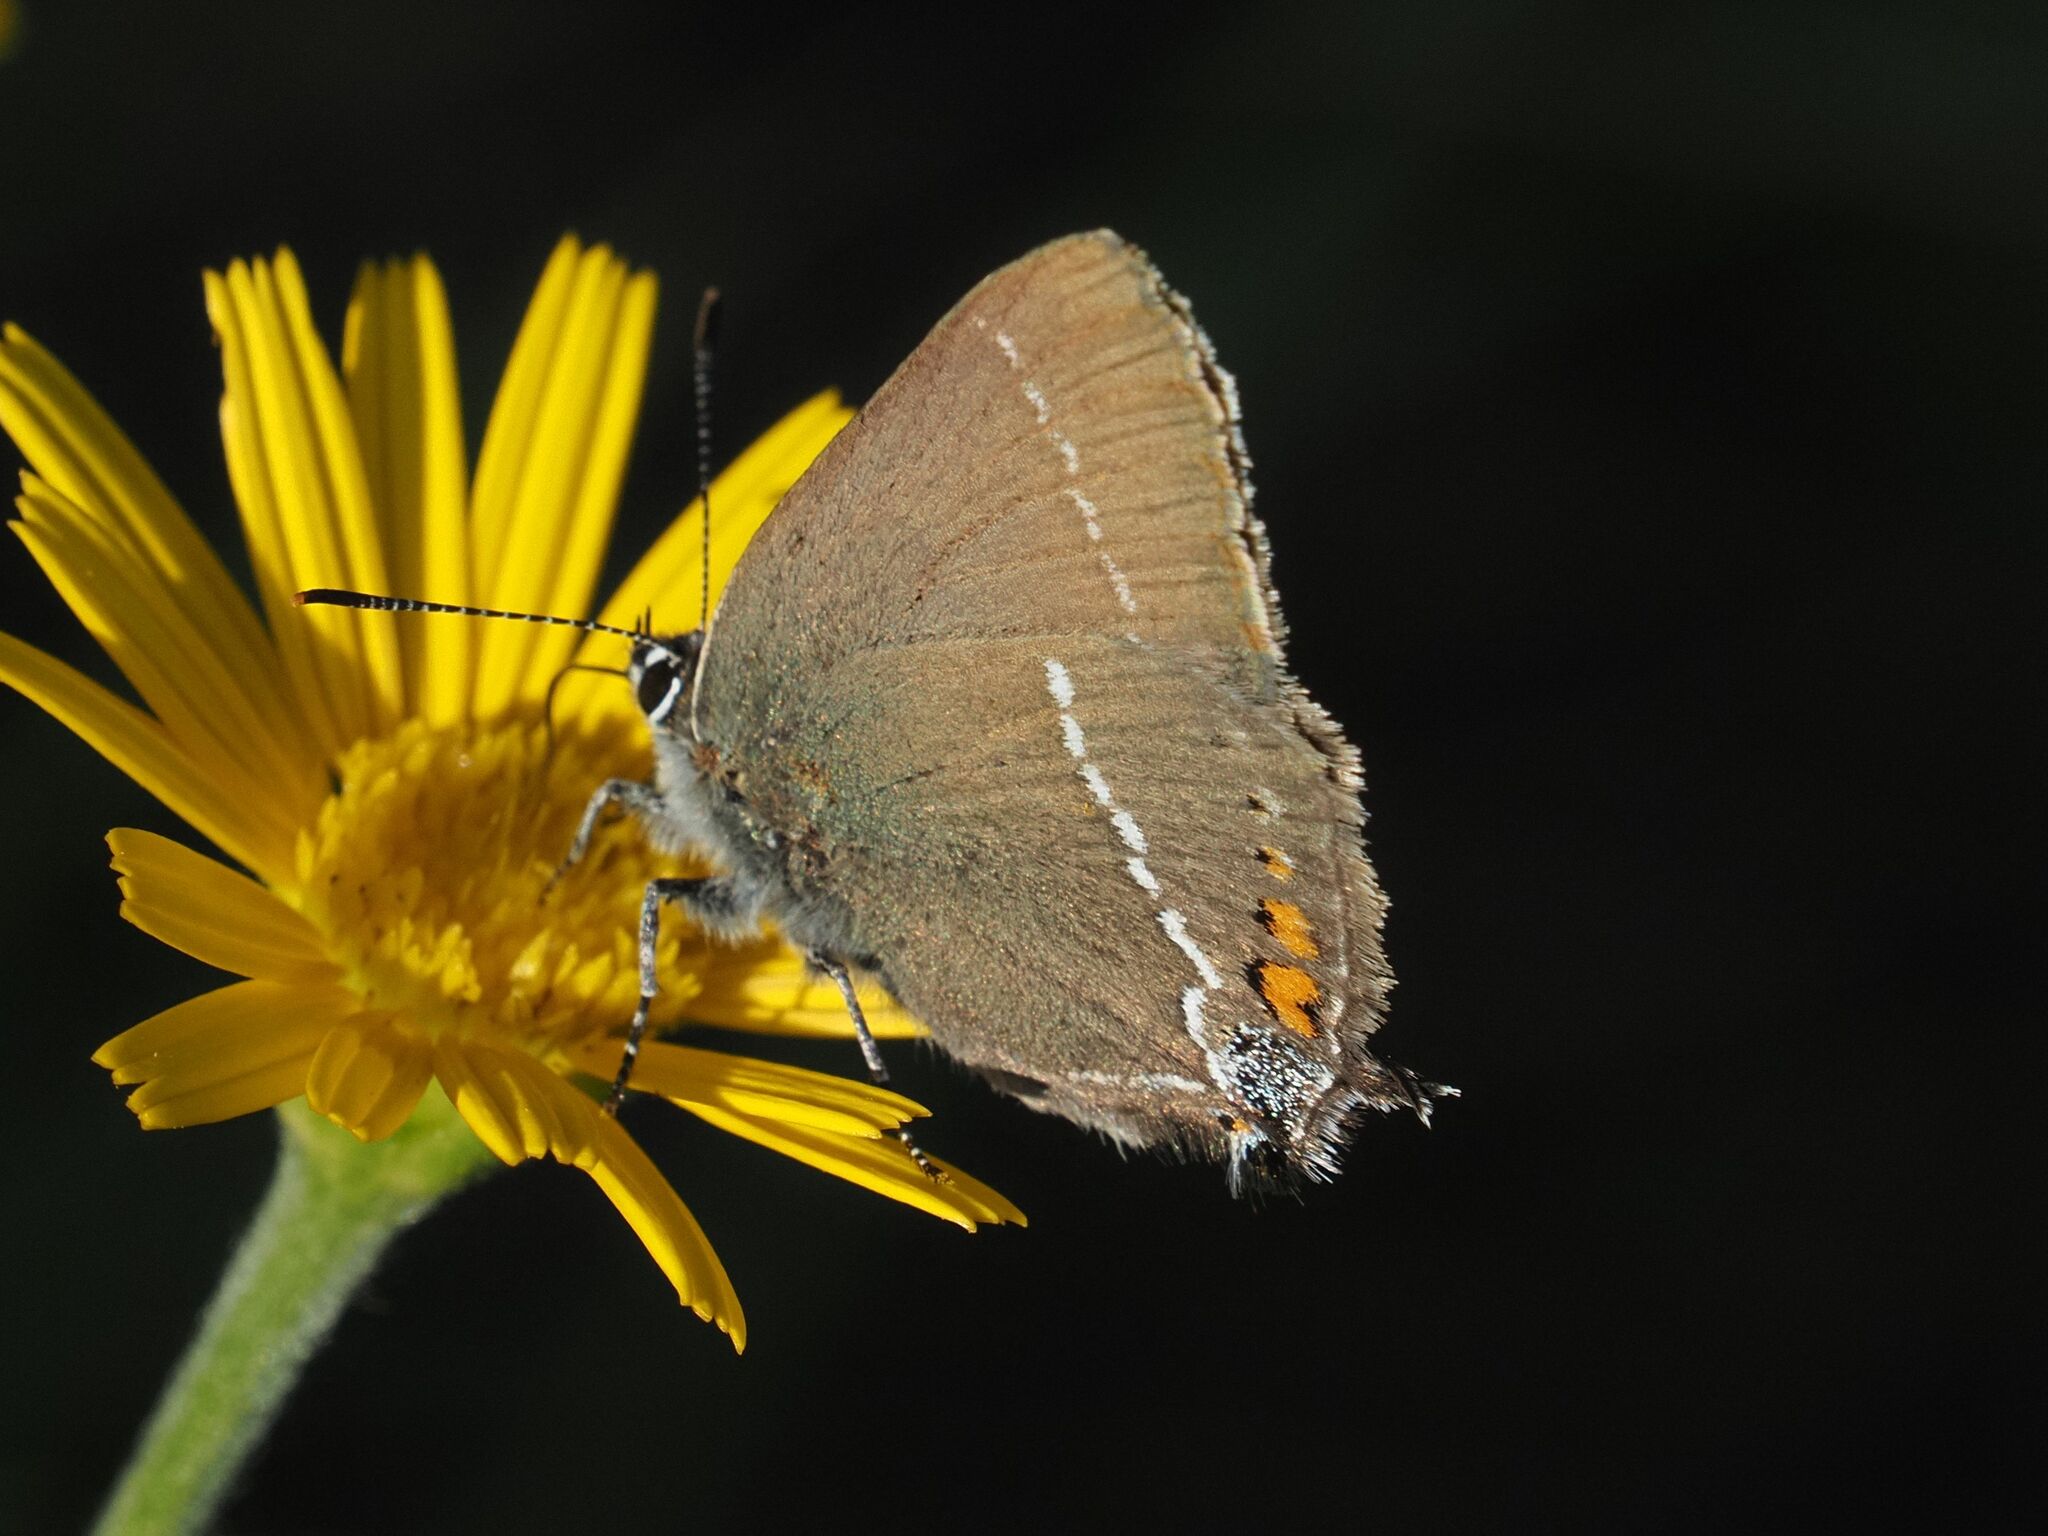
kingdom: Animalia
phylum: Arthropoda
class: Insecta
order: Lepidoptera
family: Lycaenidae
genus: Tuttiola
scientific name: Tuttiola spini
